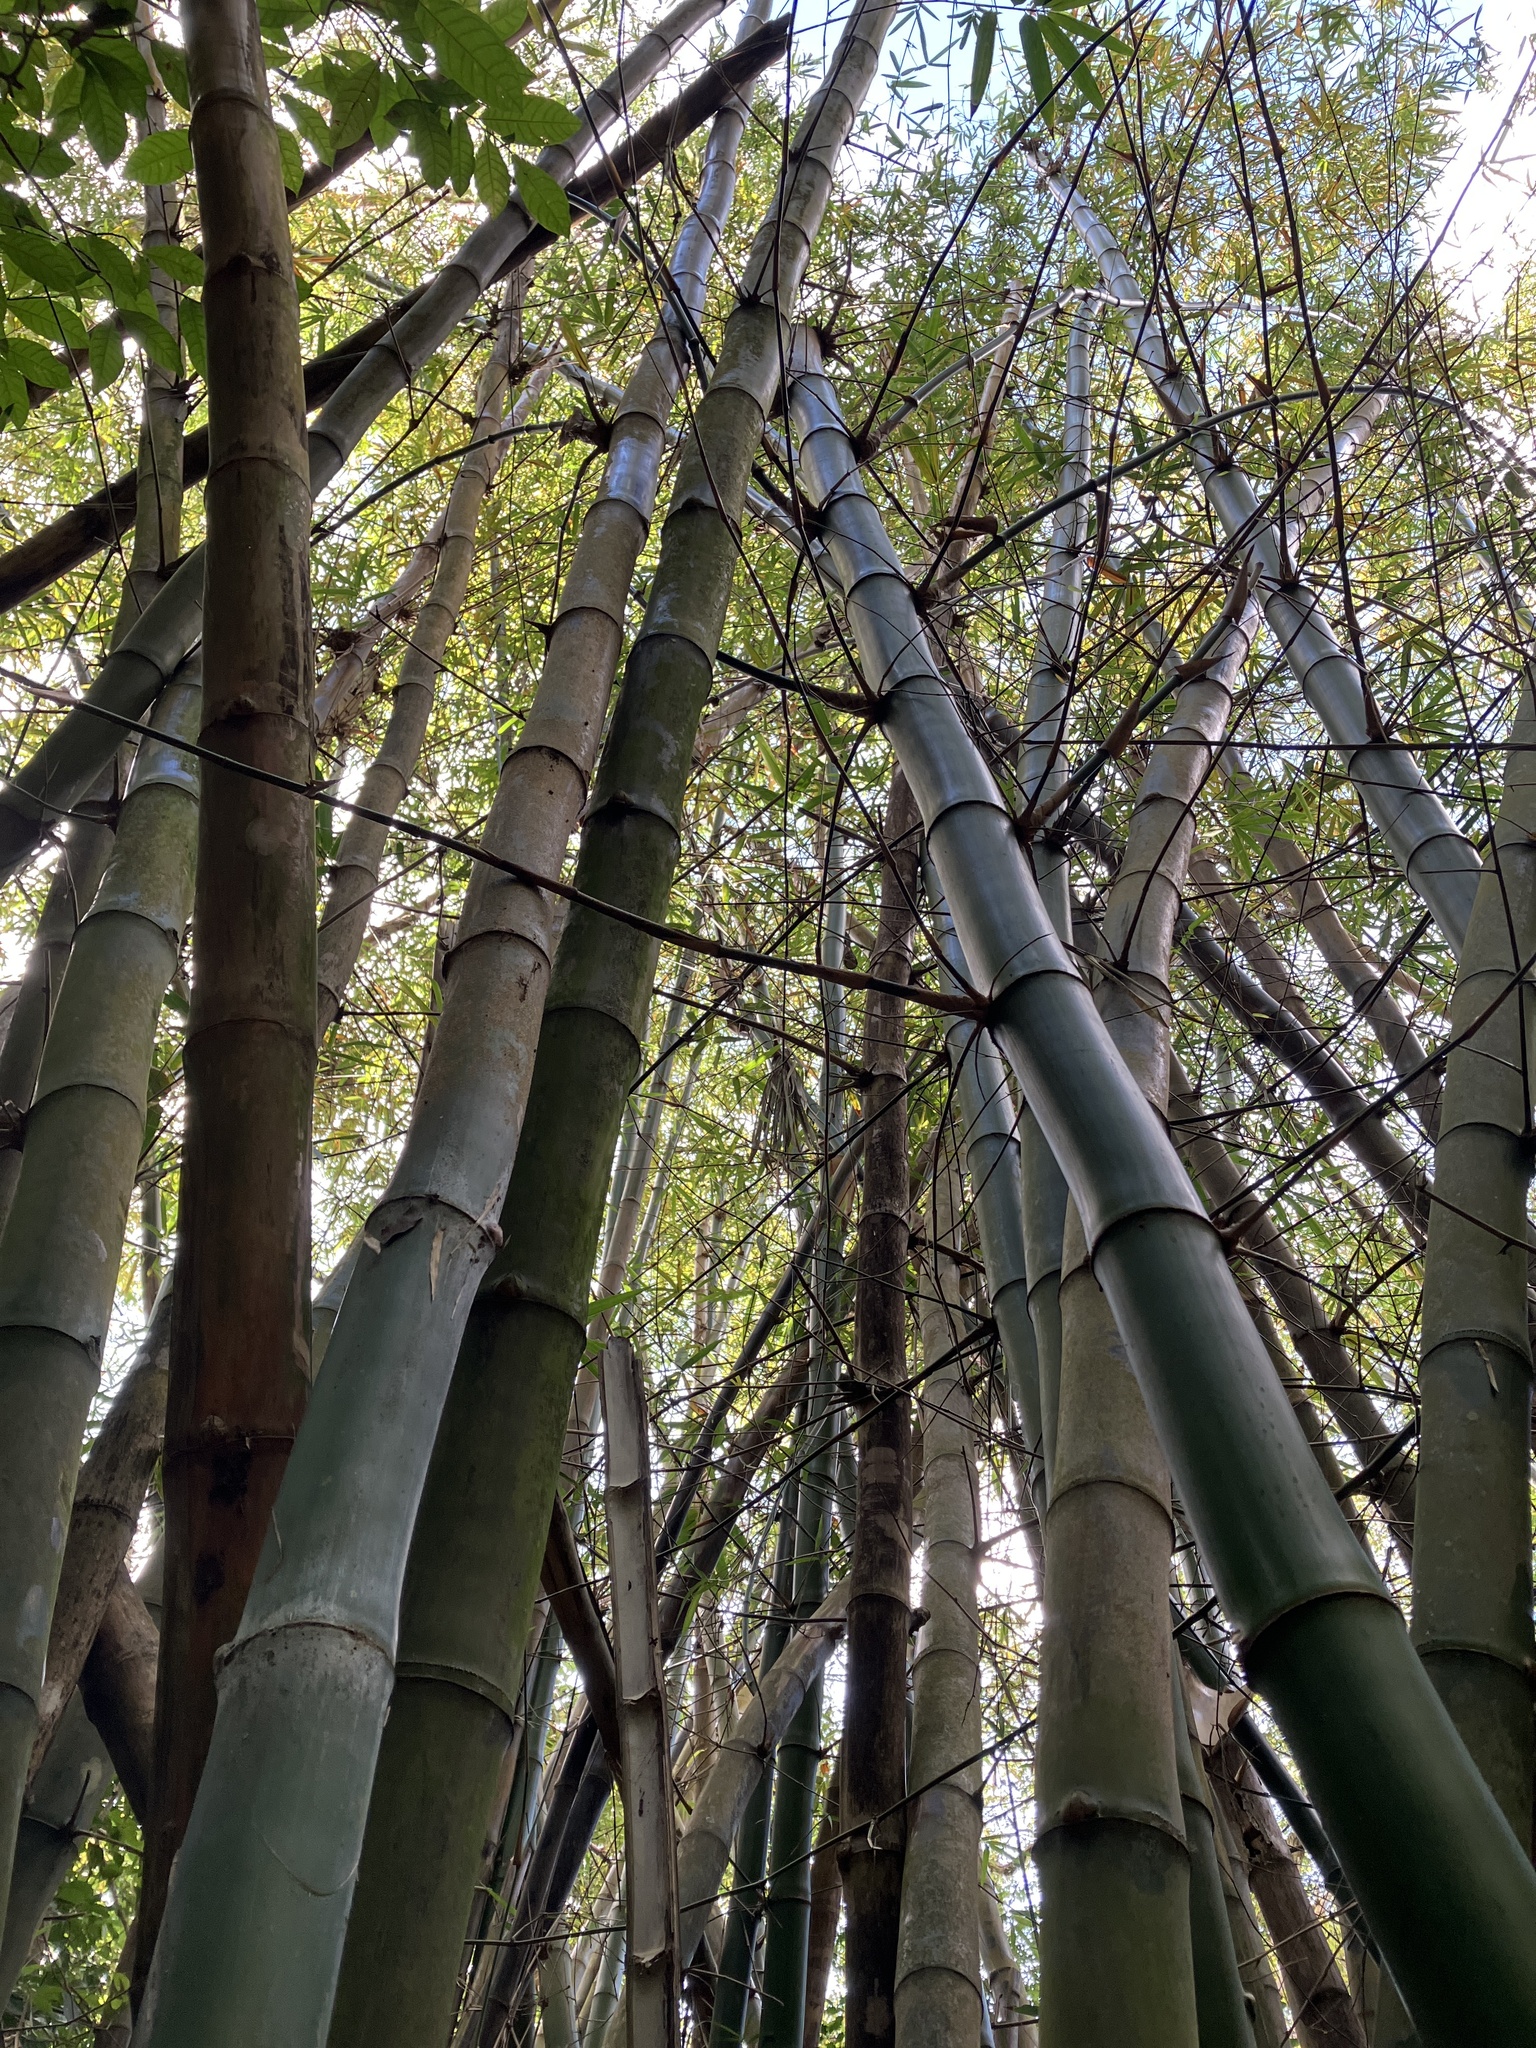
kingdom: Plantae
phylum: Tracheophyta
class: Liliopsida
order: Poales
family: Poaceae
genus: Bambusa
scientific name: Bambusa vulgaris
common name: Common bamboo
